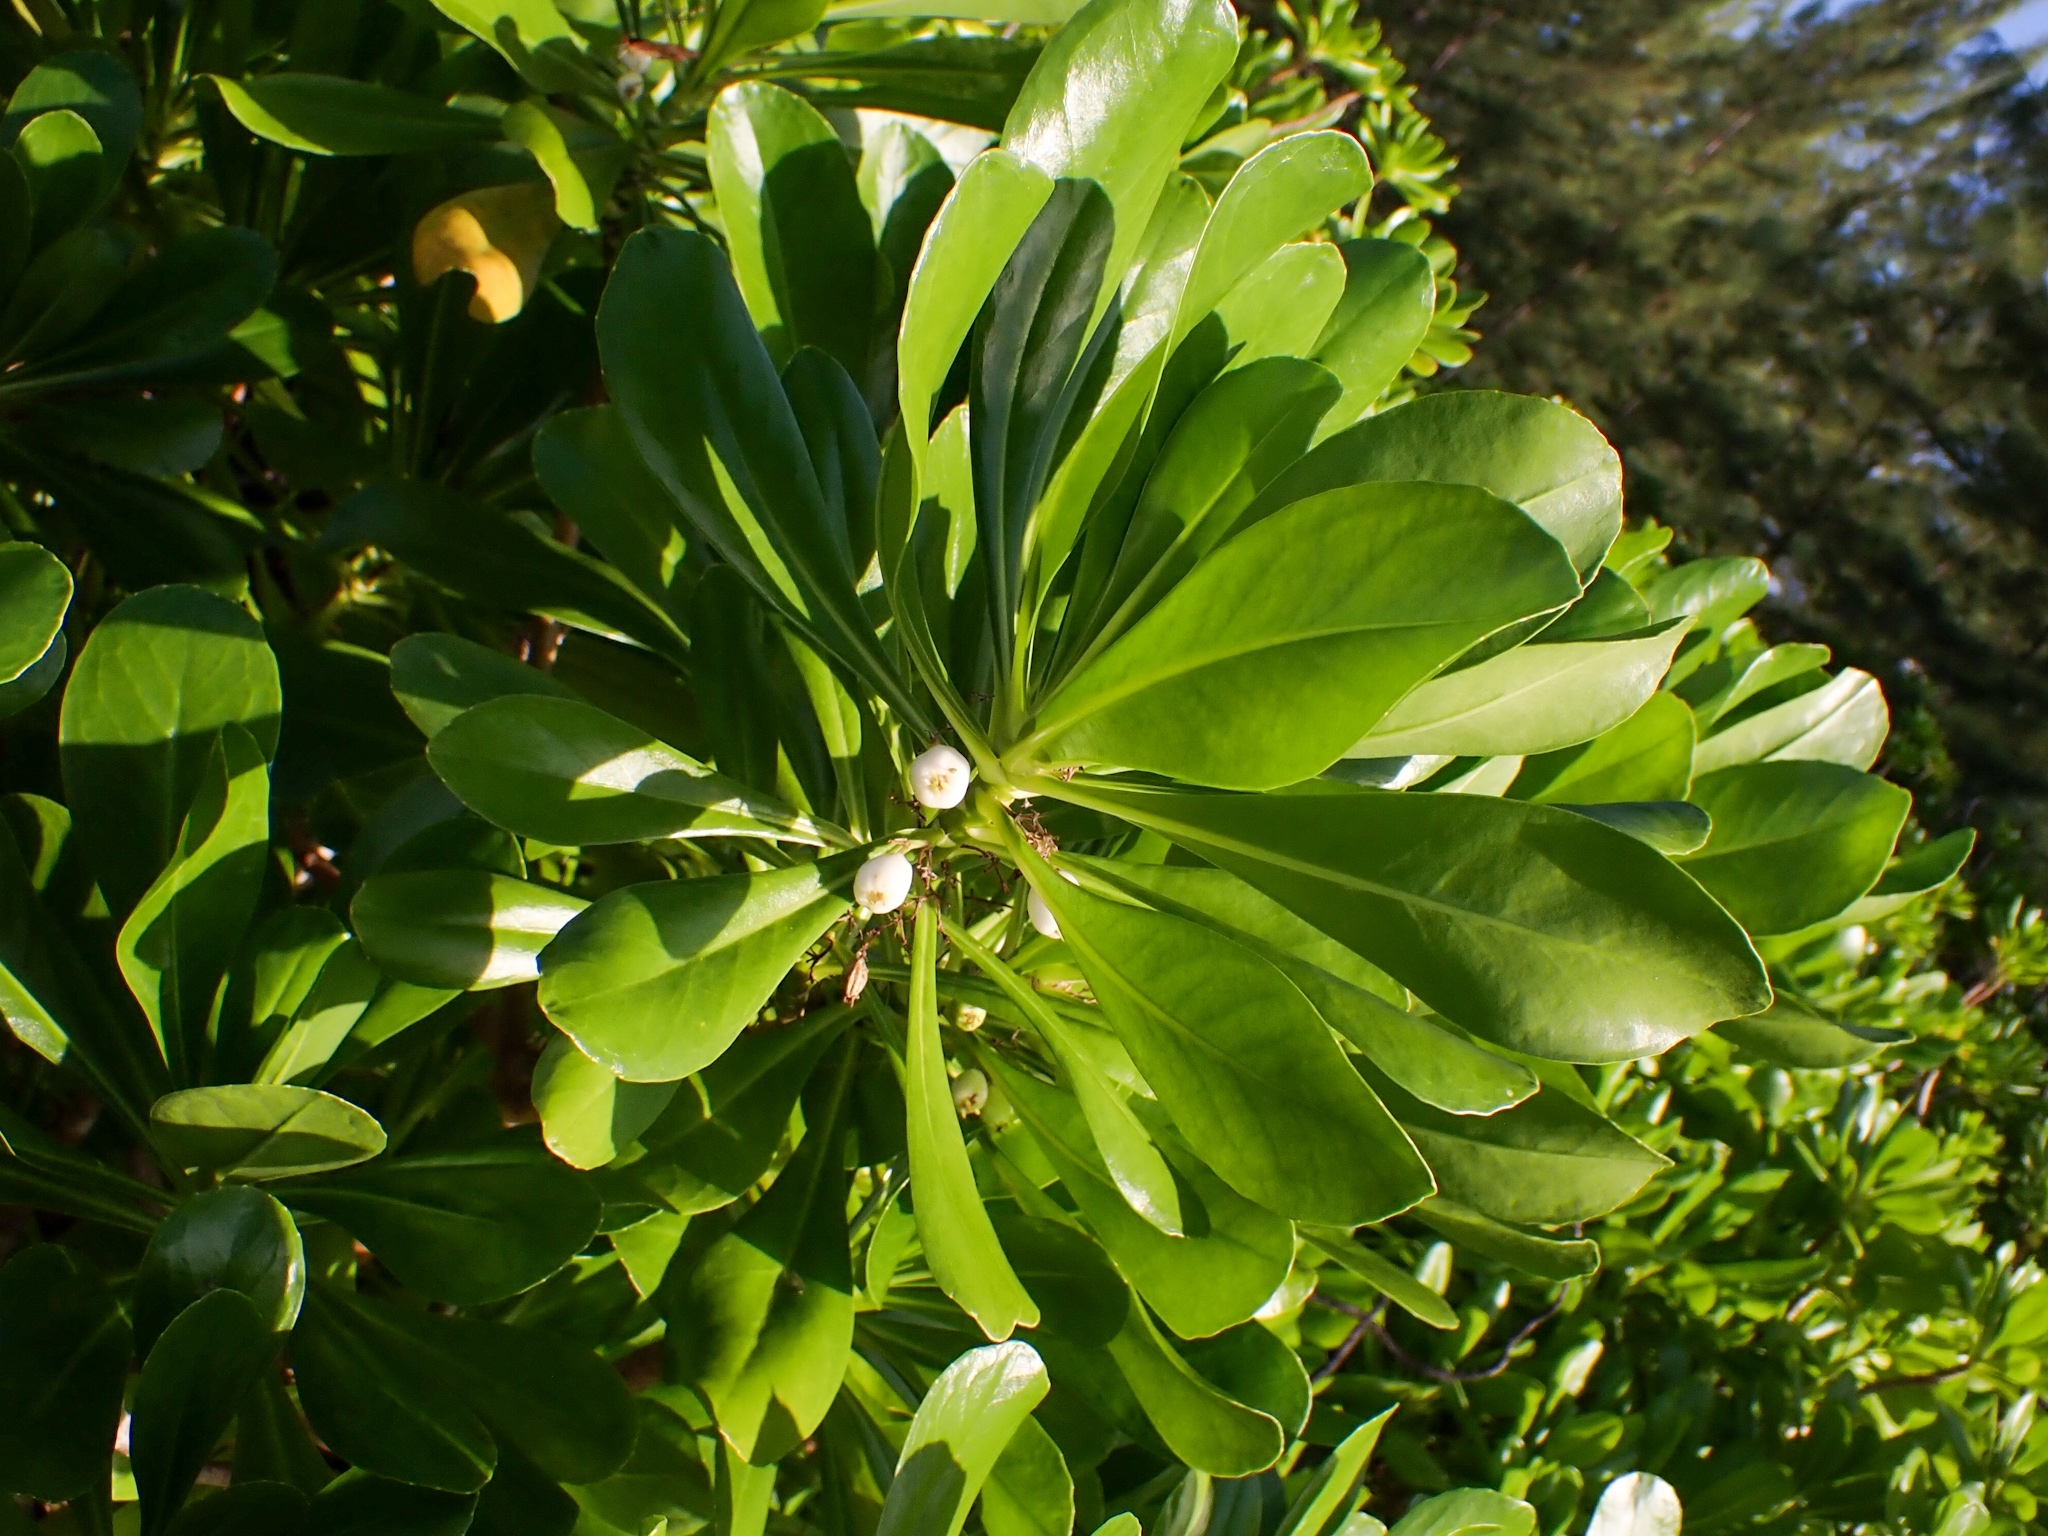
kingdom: Plantae
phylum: Tracheophyta
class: Magnoliopsida
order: Asterales
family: Goodeniaceae
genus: Scaevola
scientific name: Scaevola taccada
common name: Sea lettucetree
